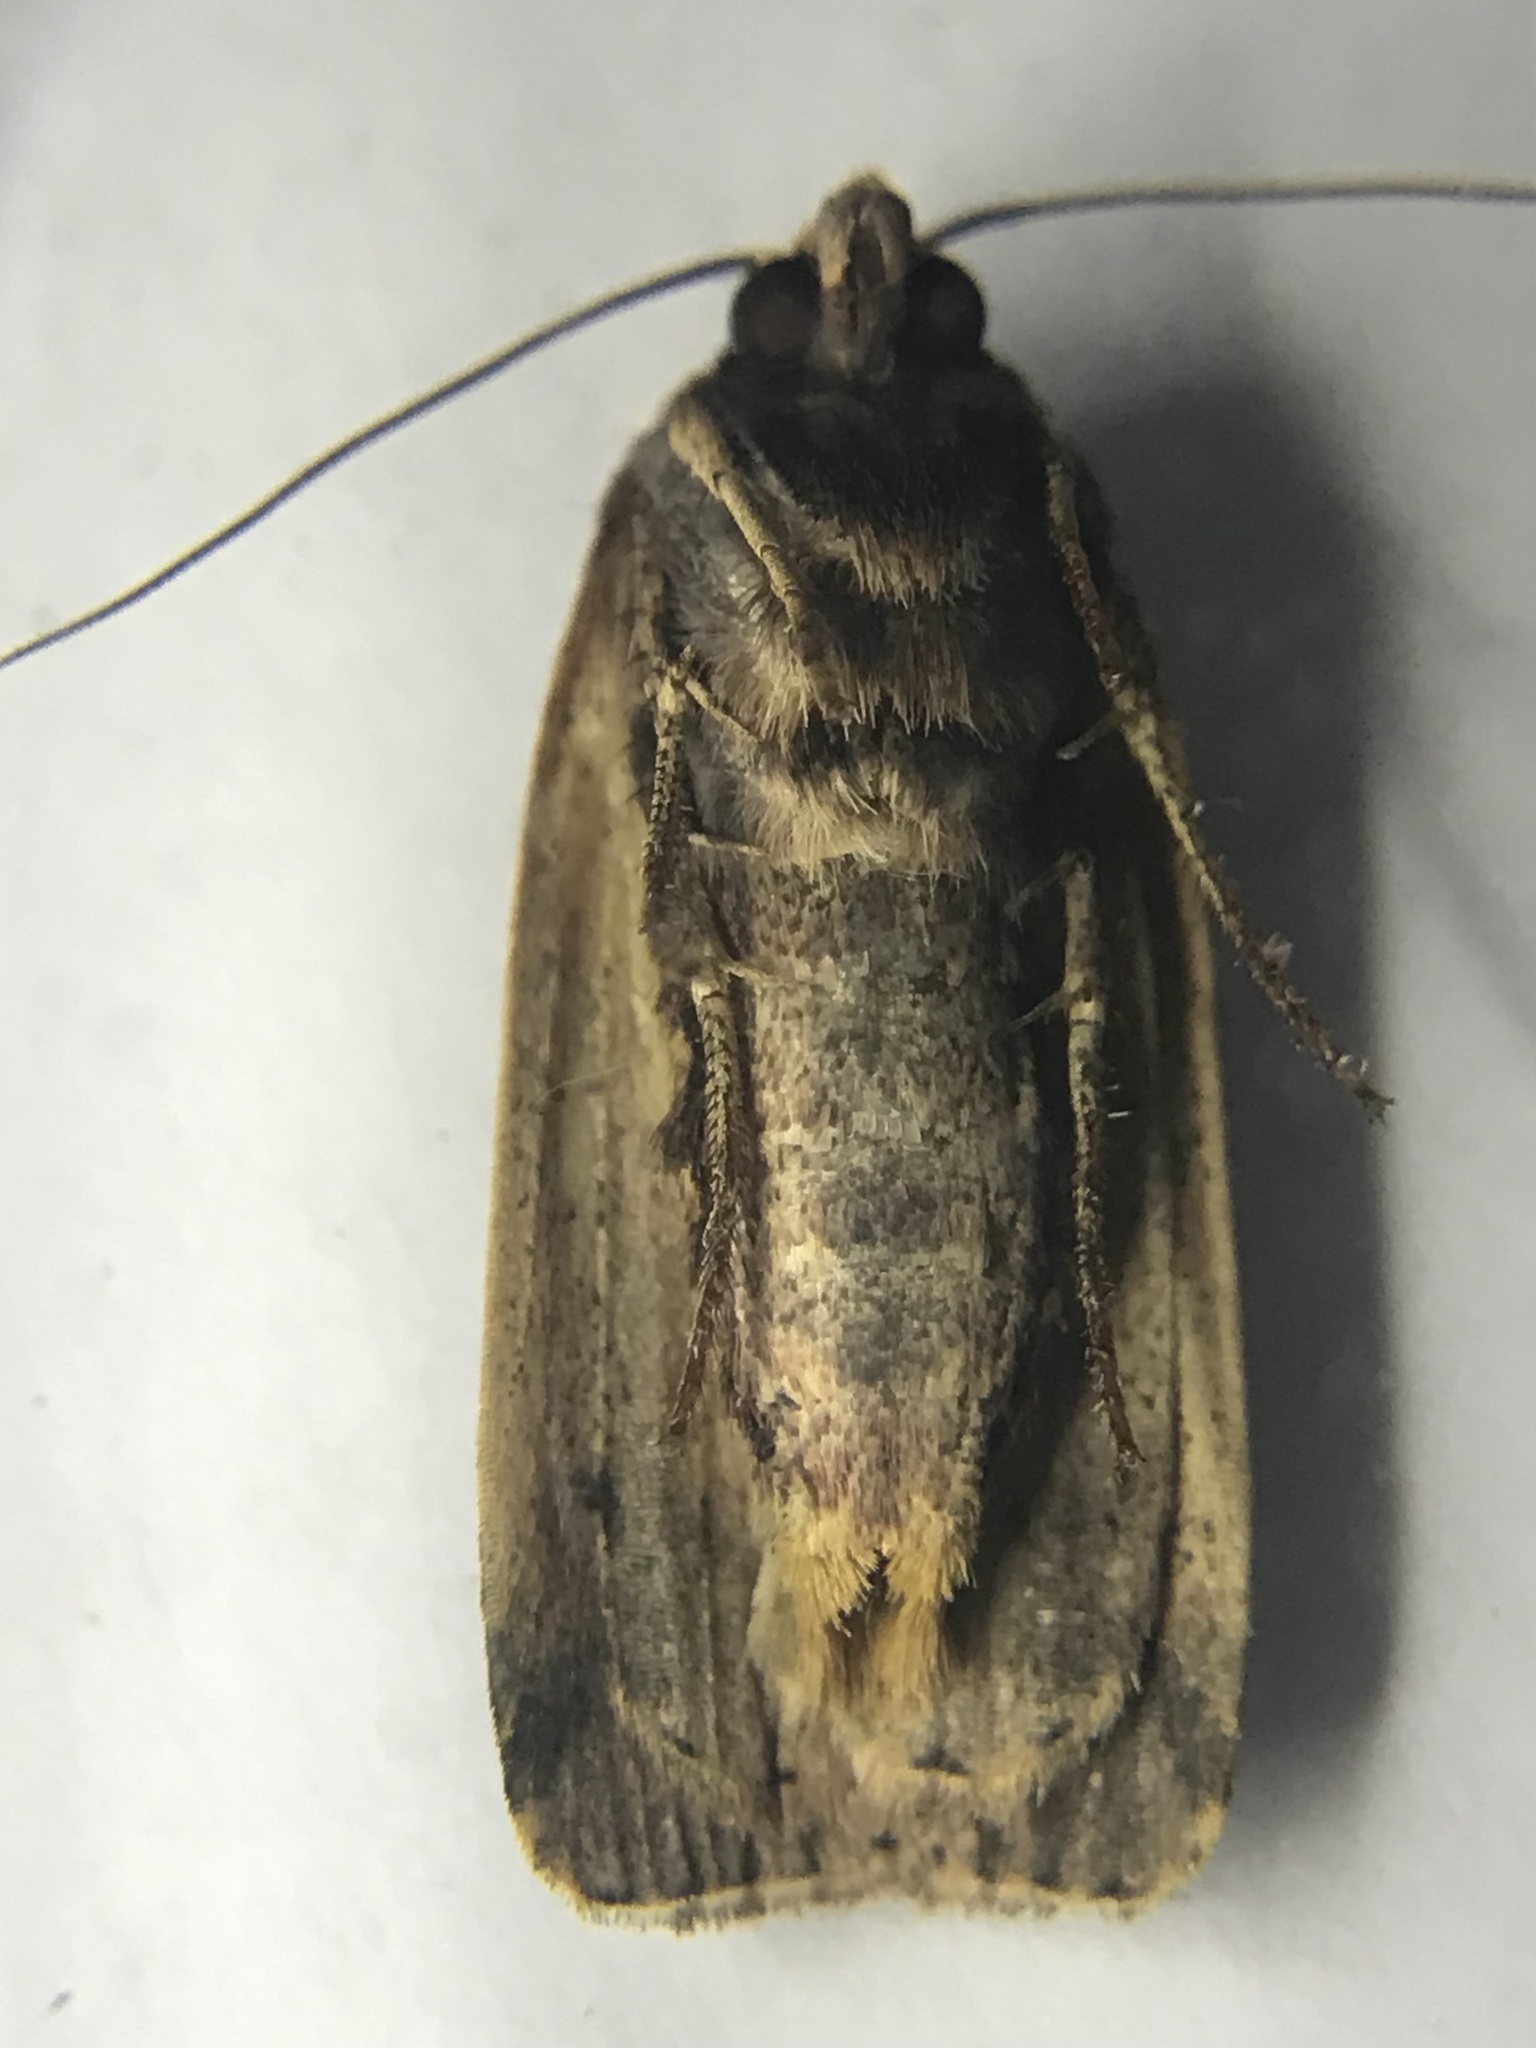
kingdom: Animalia
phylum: Arthropoda
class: Insecta
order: Lepidoptera
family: Noctuidae
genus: Ochropleura
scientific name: Ochropleura implecta
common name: Flame-shouldered dart
